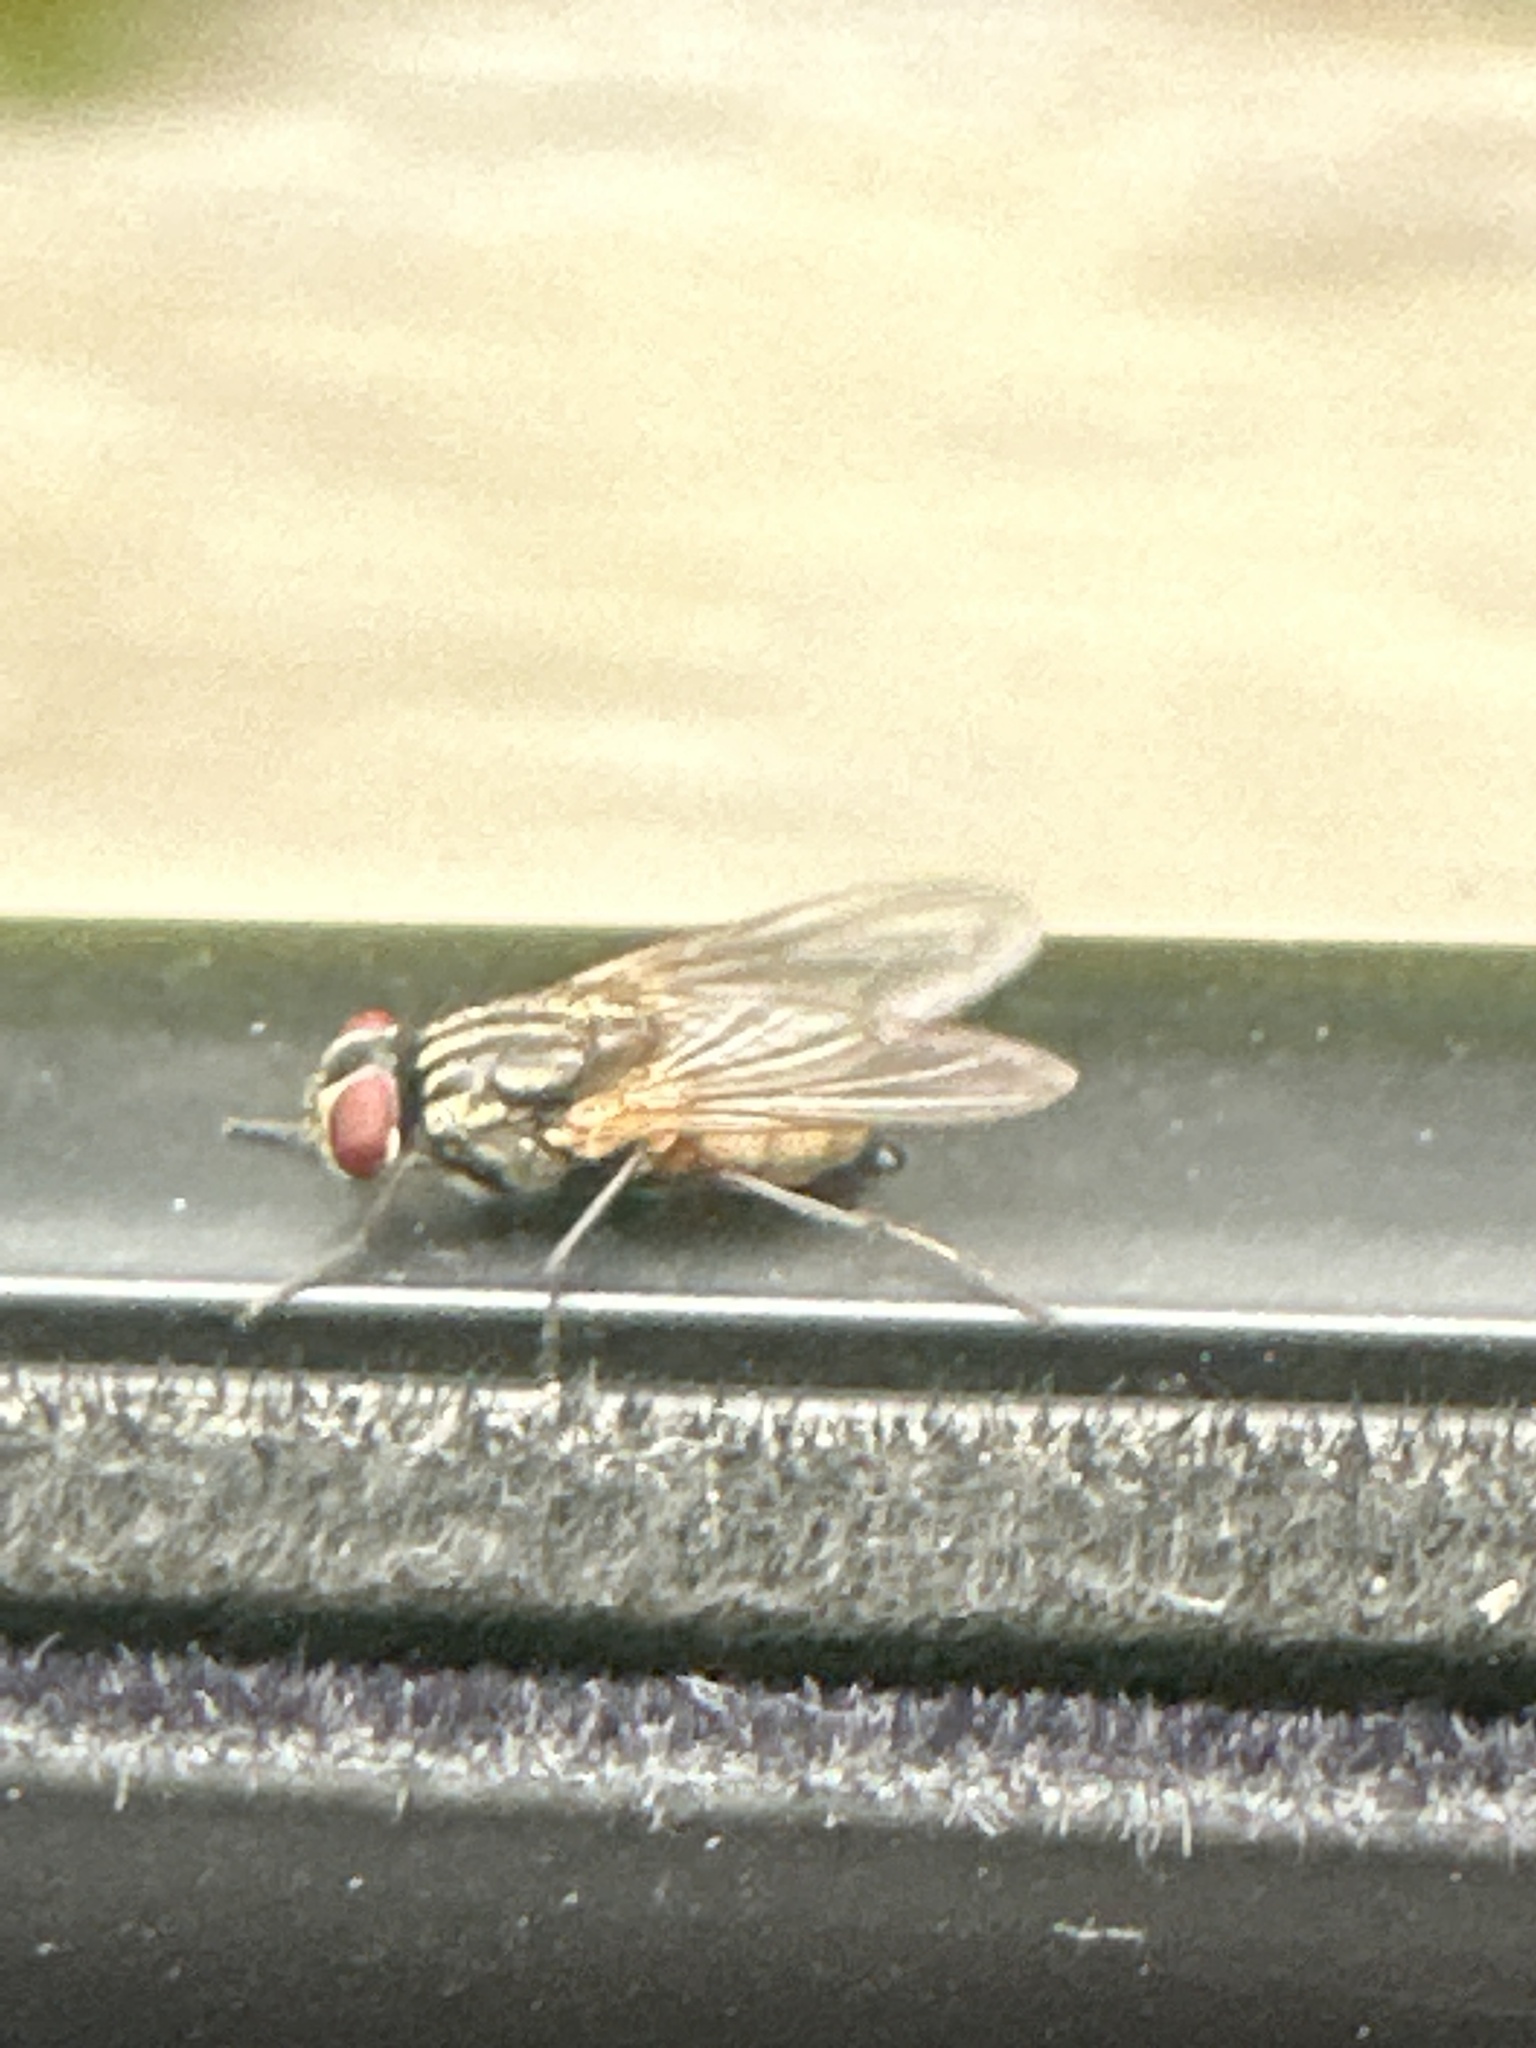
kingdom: Animalia
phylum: Arthropoda
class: Insecta
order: Diptera
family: Muscidae
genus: Musca
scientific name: Musca domestica
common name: House fly
